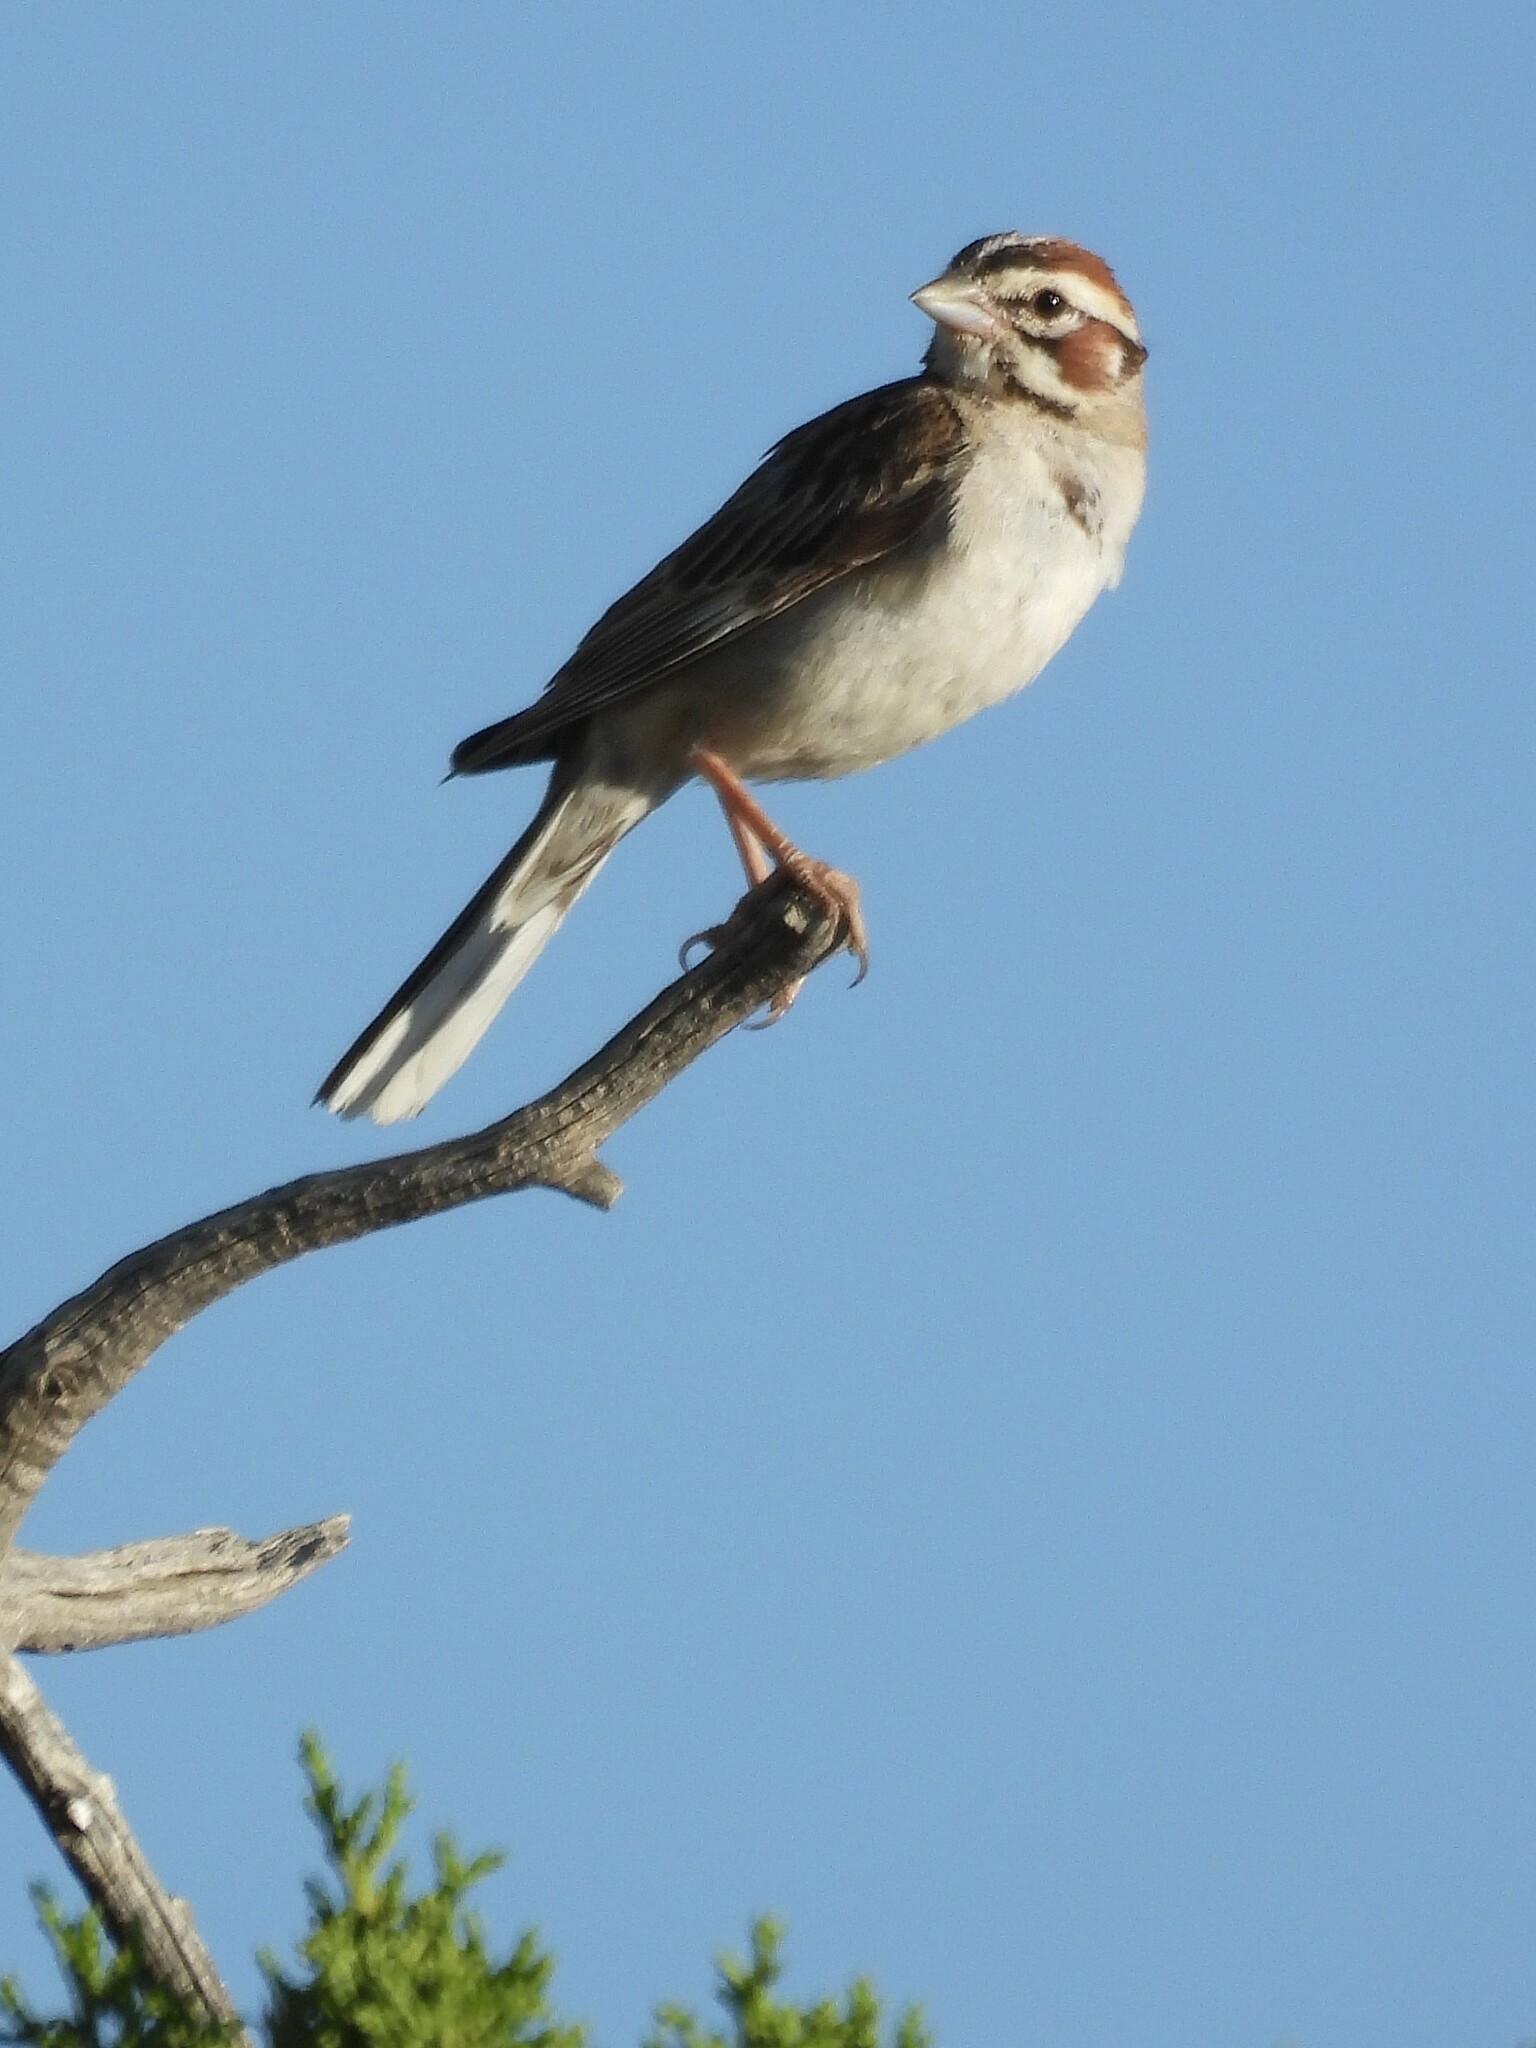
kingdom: Animalia
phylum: Chordata
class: Aves
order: Passeriformes
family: Passerellidae
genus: Chondestes
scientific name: Chondestes grammacus
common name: Lark sparrow
